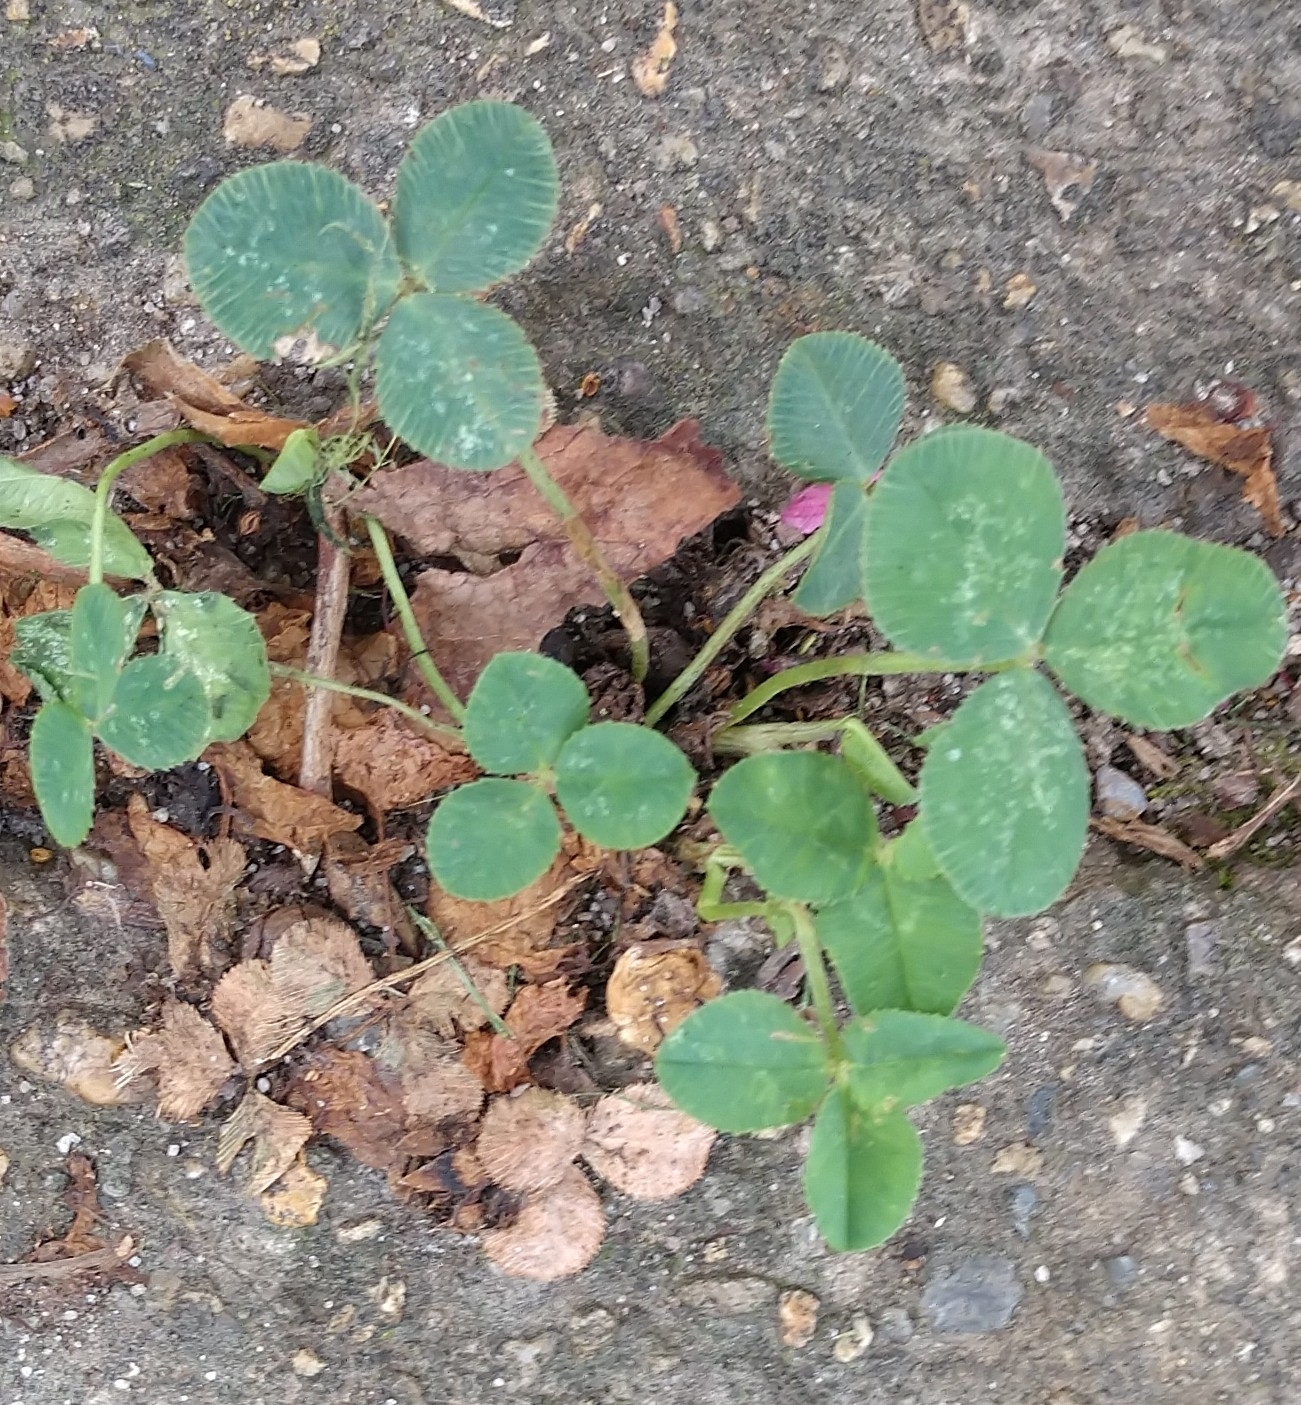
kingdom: Plantae
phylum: Tracheophyta
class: Magnoliopsida
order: Fabales
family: Fabaceae
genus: Trifolium
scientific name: Trifolium repens
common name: White clover
